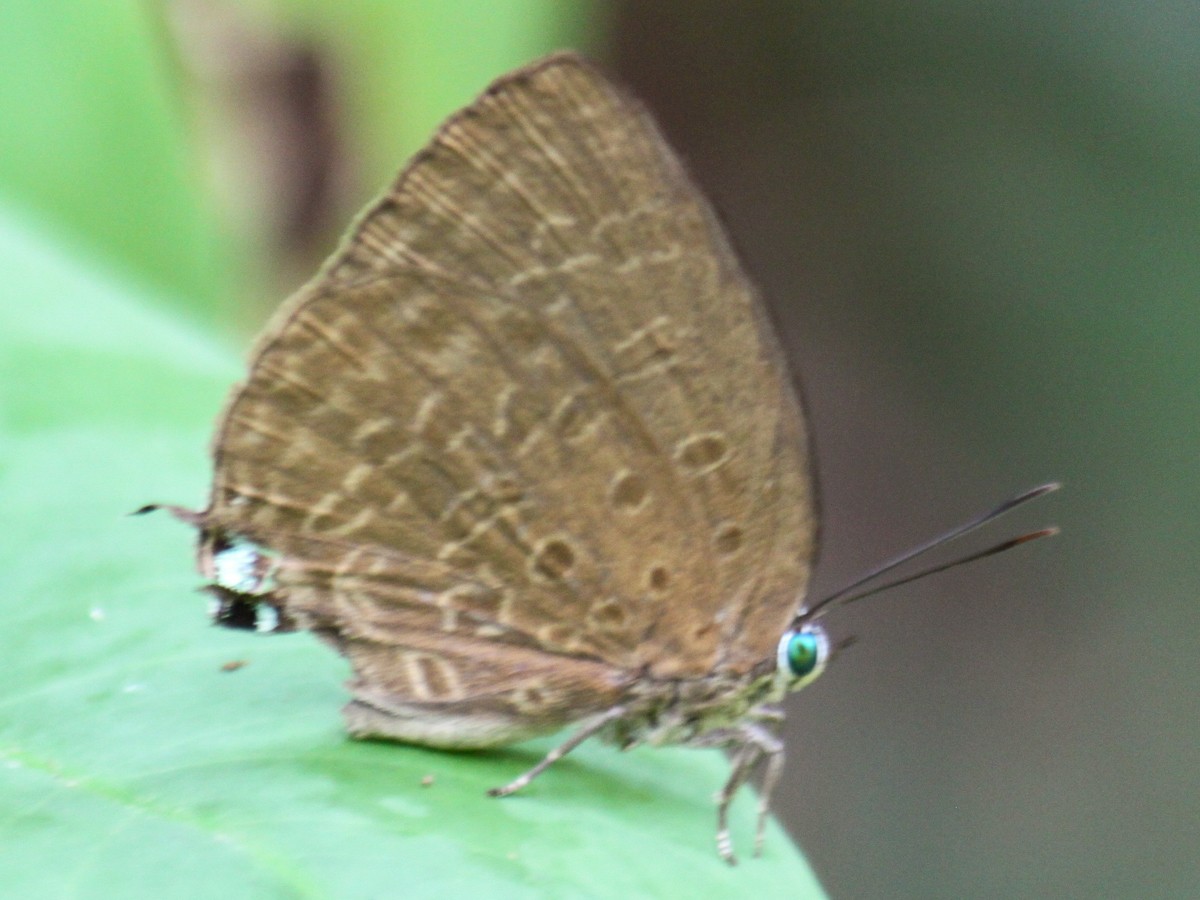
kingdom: Animalia
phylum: Arthropoda
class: Insecta
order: Lepidoptera
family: Lycaenidae
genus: Arhopala
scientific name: Arhopala atosia
